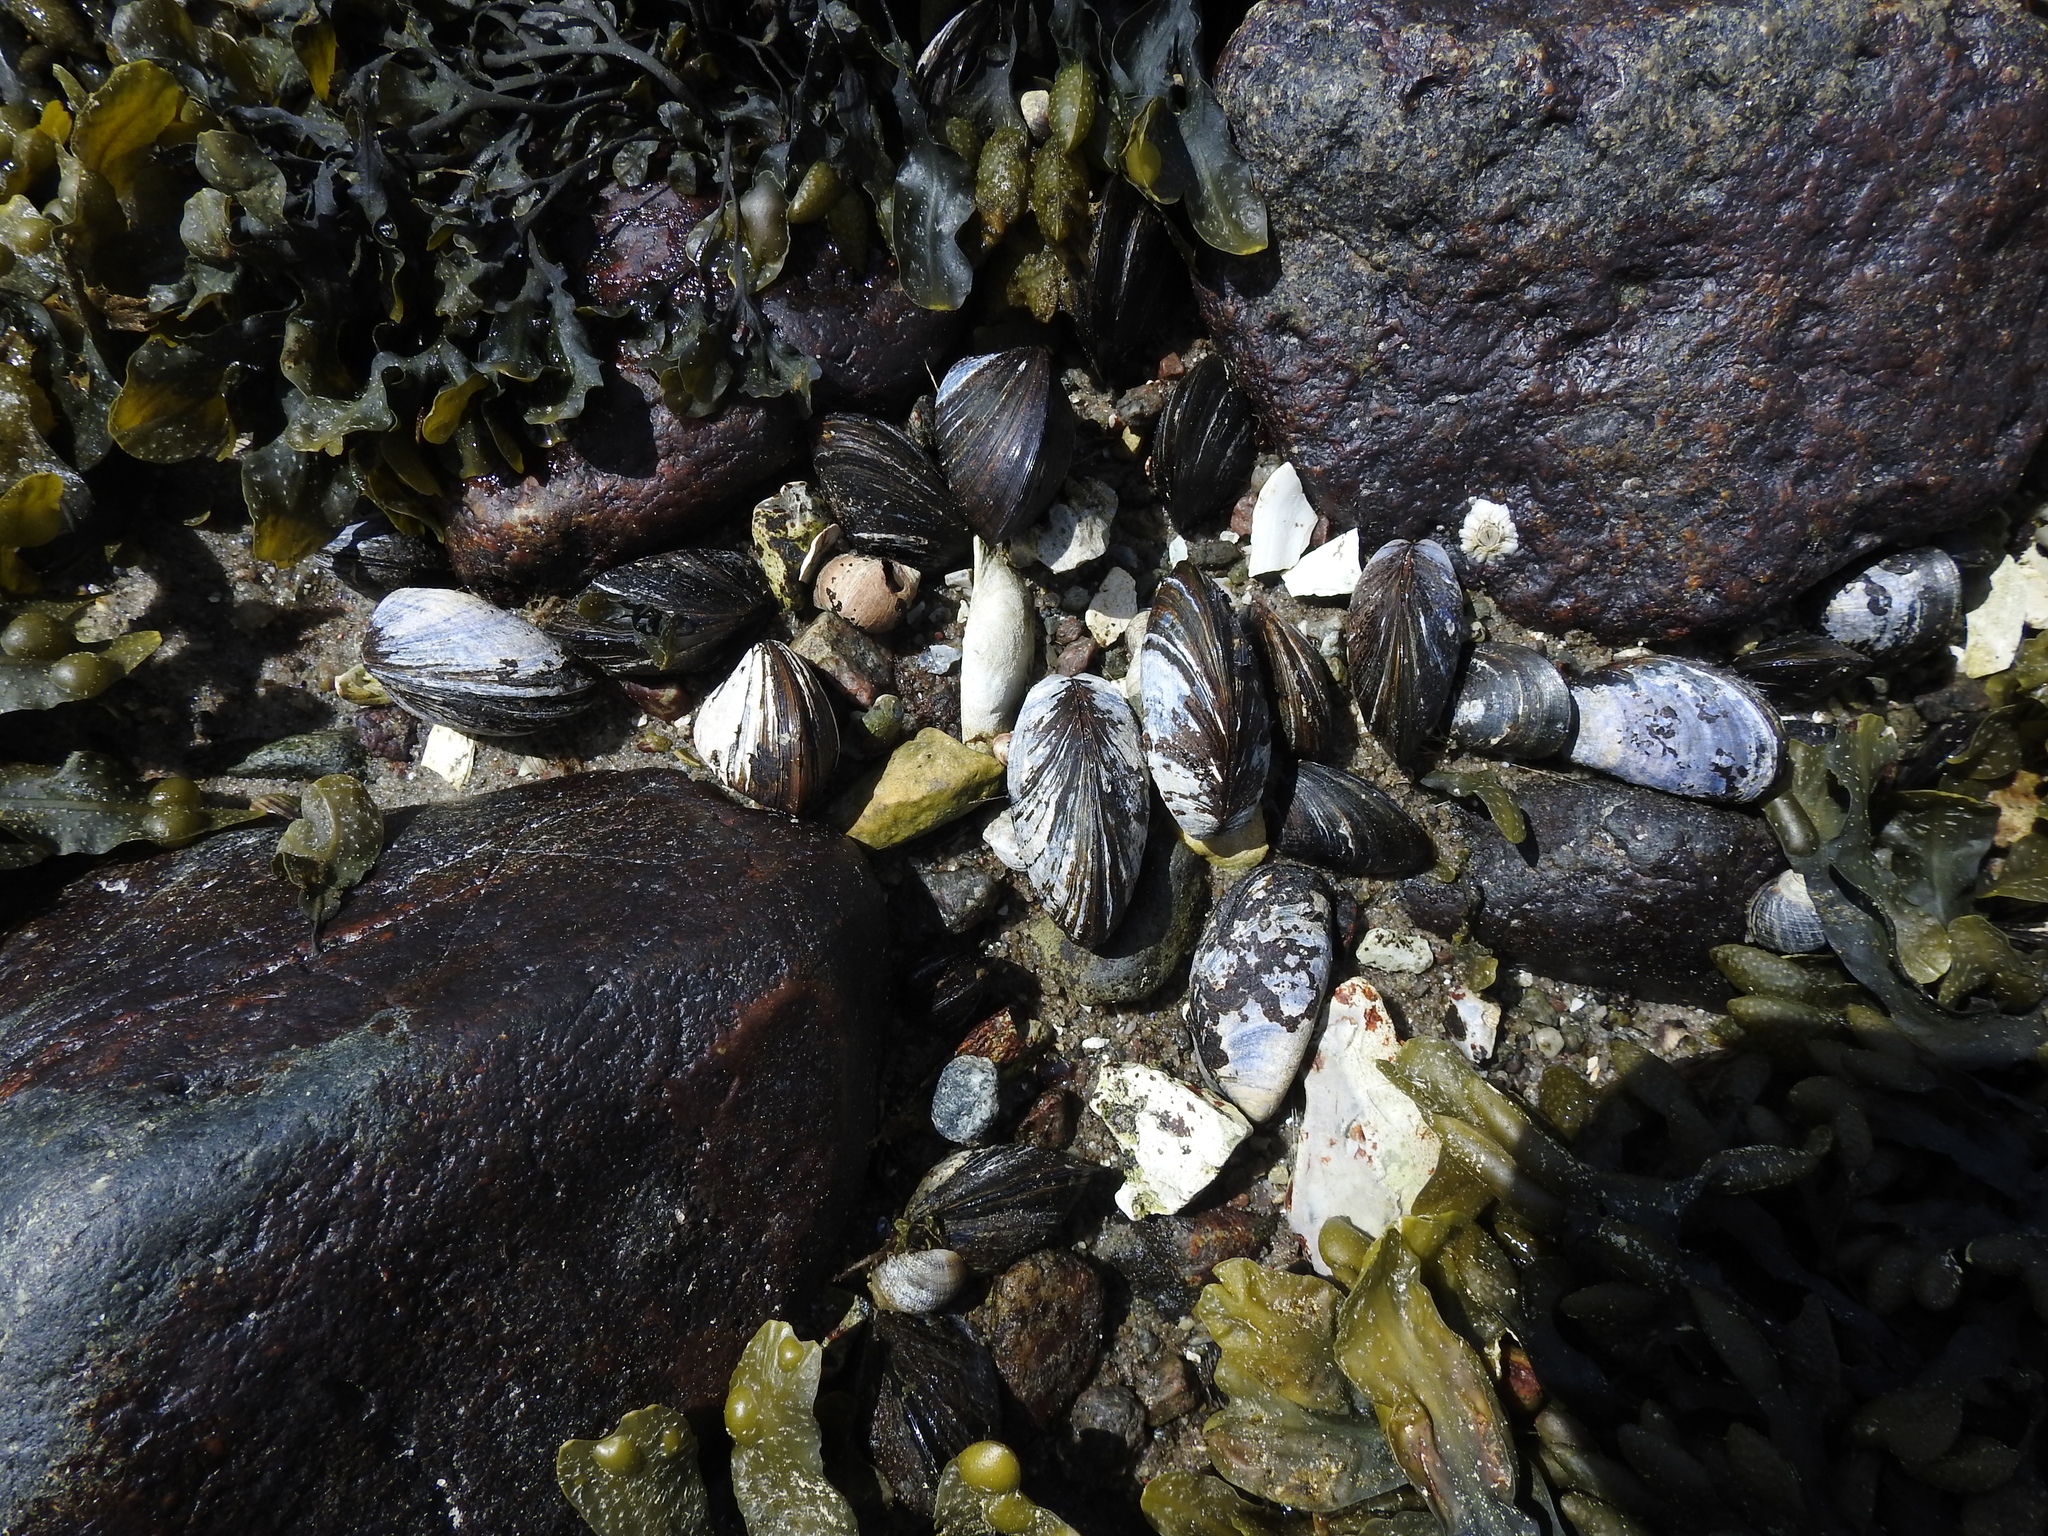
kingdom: Animalia
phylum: Mollusca
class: Bivalvia
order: Mytilida
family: Mytilidae
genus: Mytilus
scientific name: Mytilus edulis
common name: Blue mussel
